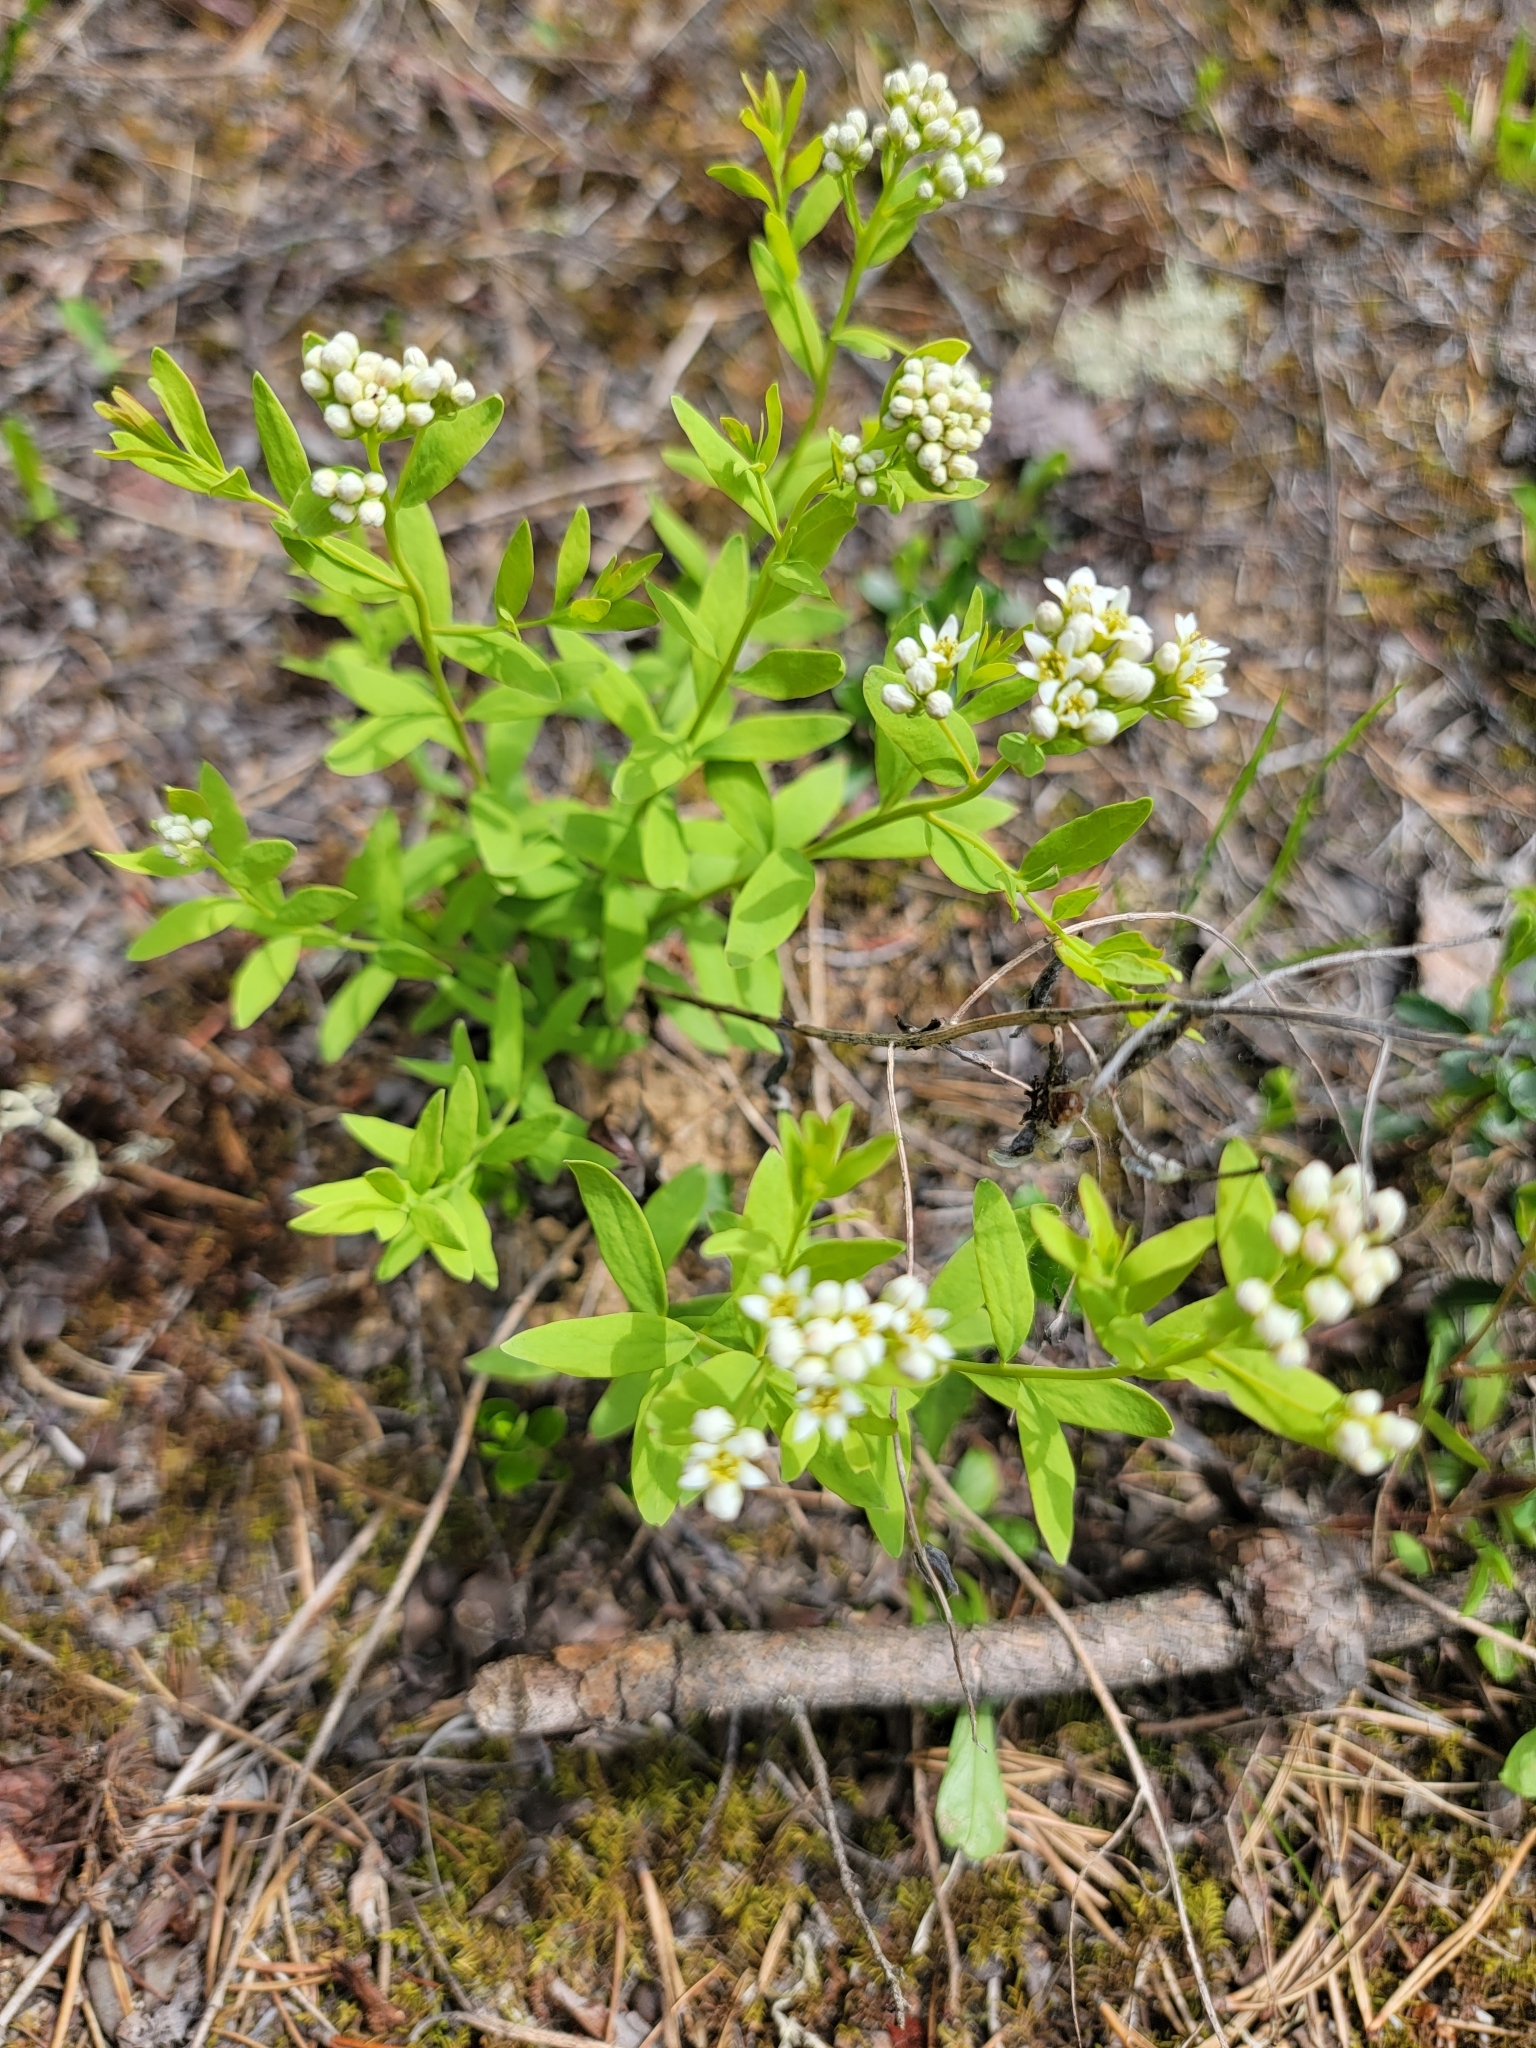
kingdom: Plantae
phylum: Tracheophyta
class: Magnoliopsida
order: Santalales
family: Comandraceae
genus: Comandra
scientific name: Comandra umbellata
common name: Bastard toadflax
